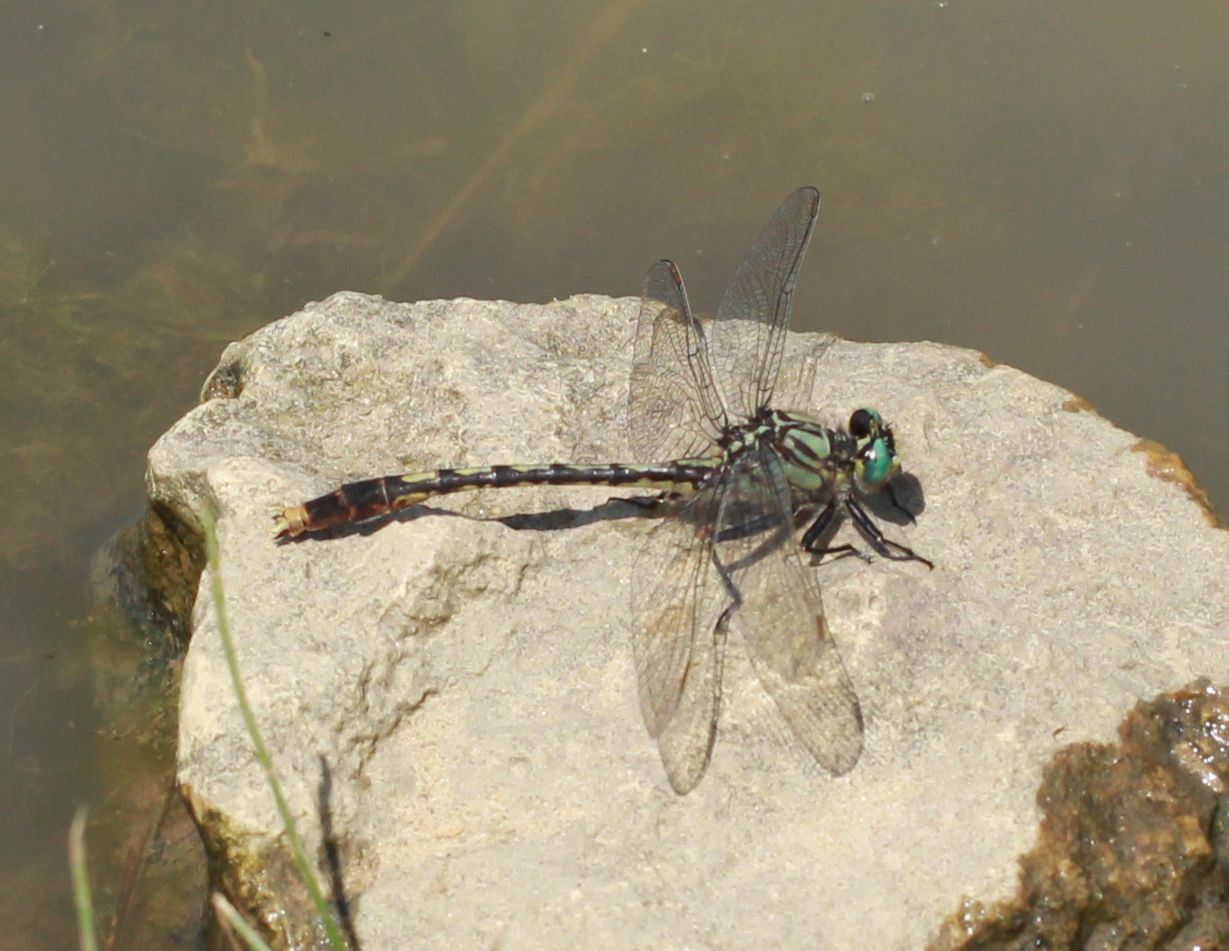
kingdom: Animalia
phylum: Arthropoda
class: Insecta
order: Odonata
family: Gomphidae
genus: Arigomphus
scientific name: Arigomphus villosipes
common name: Unicorn clubtail
